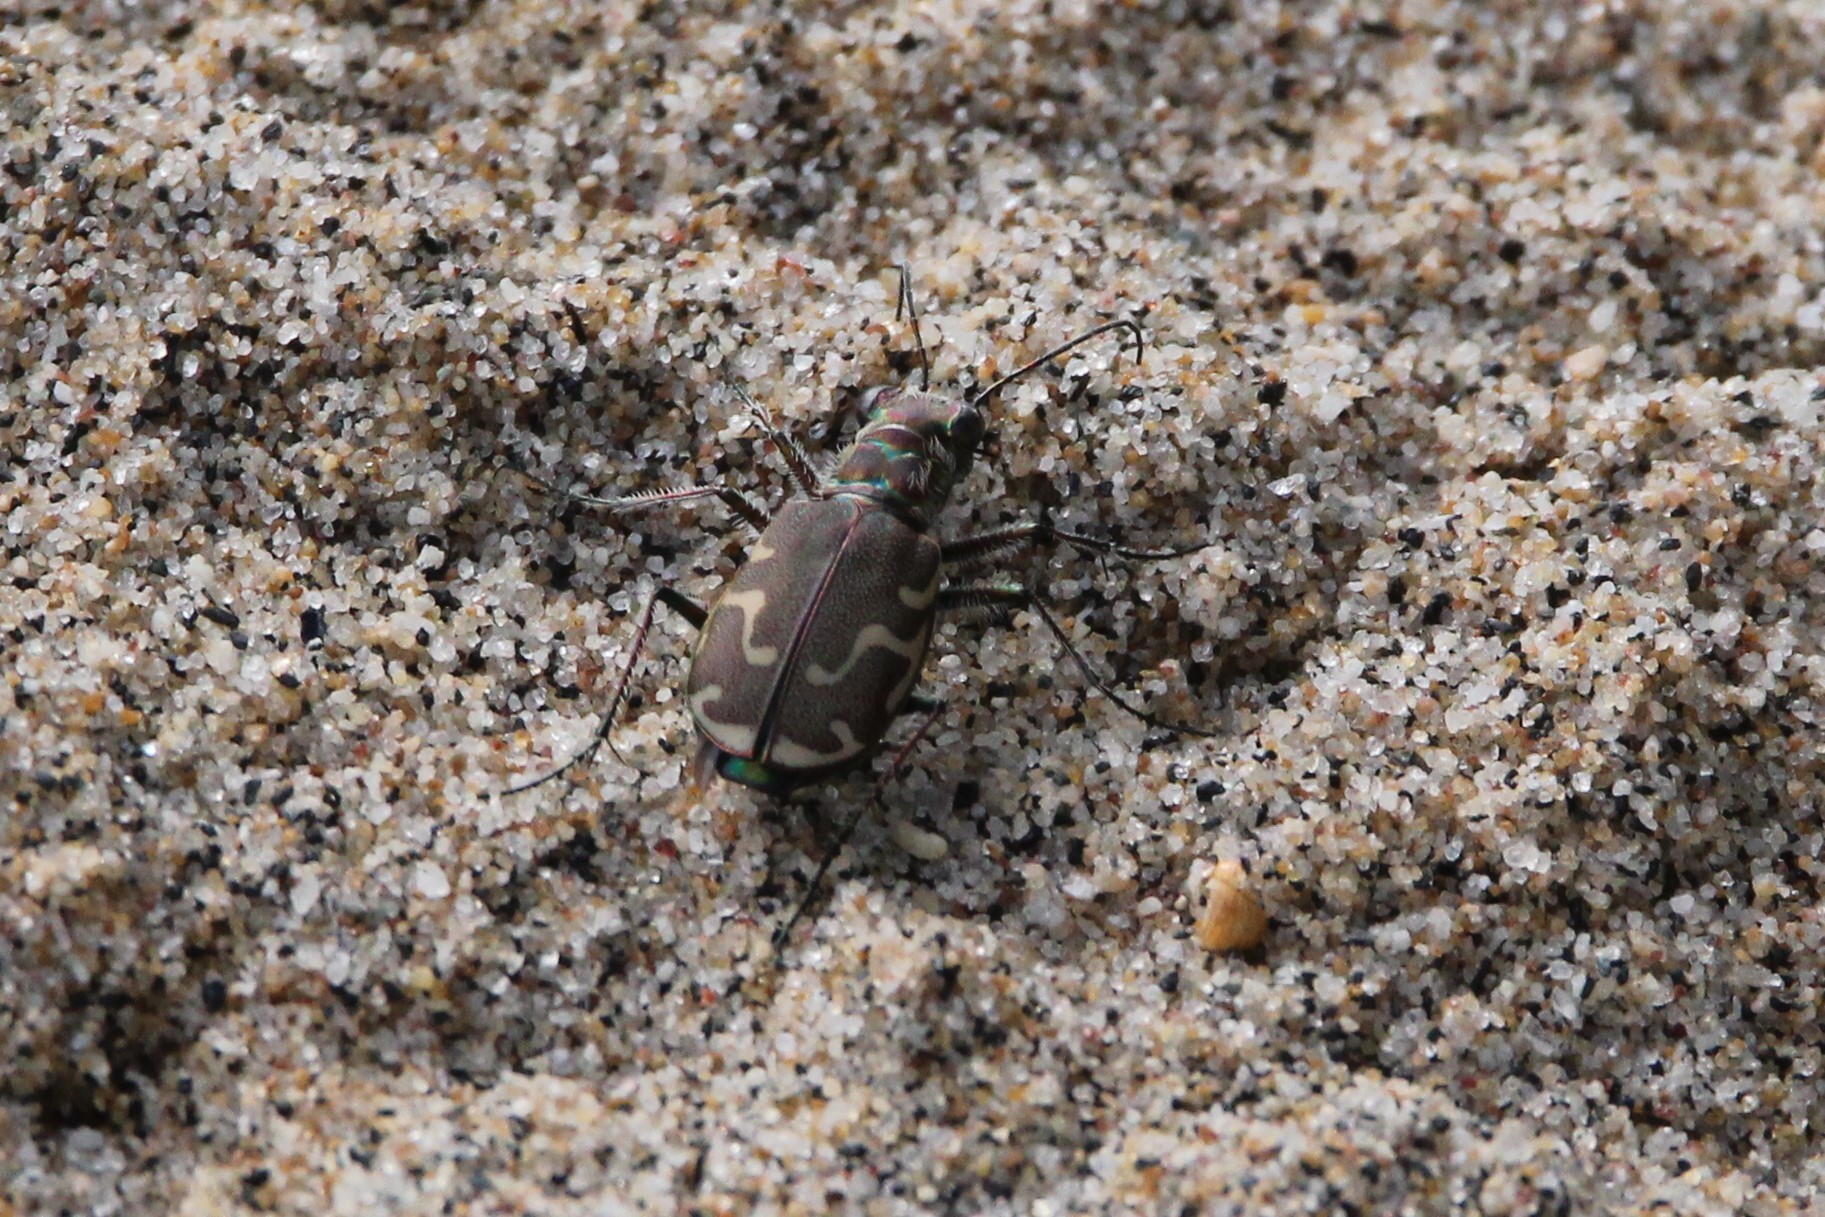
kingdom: Animalia
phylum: Arthropoda
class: Insecta
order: Coleoptera
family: Carabidae
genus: Cicindela
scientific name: Cicindela repanda
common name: Bronzed tiger beetle
